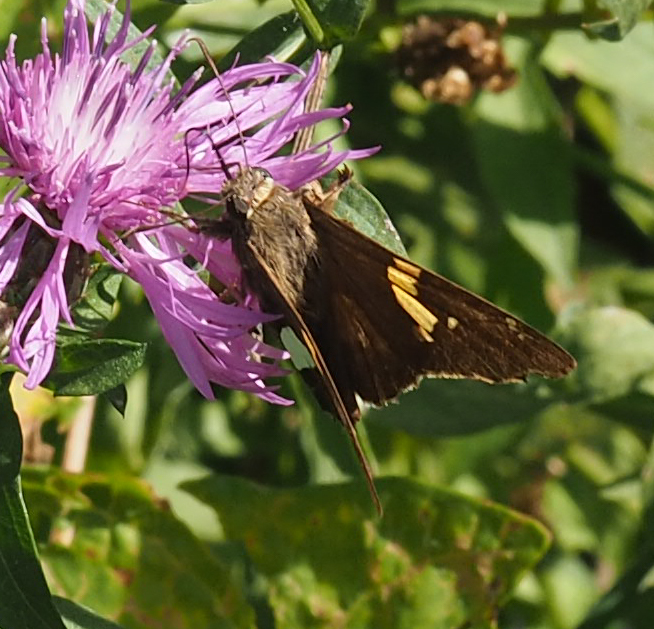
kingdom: Animalia
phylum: Arthropoda
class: Insecta
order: Lepidoptera
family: Hesperiidae
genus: Epargyreus
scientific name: Epargyreus clarus
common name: Silver-spotted skipper
